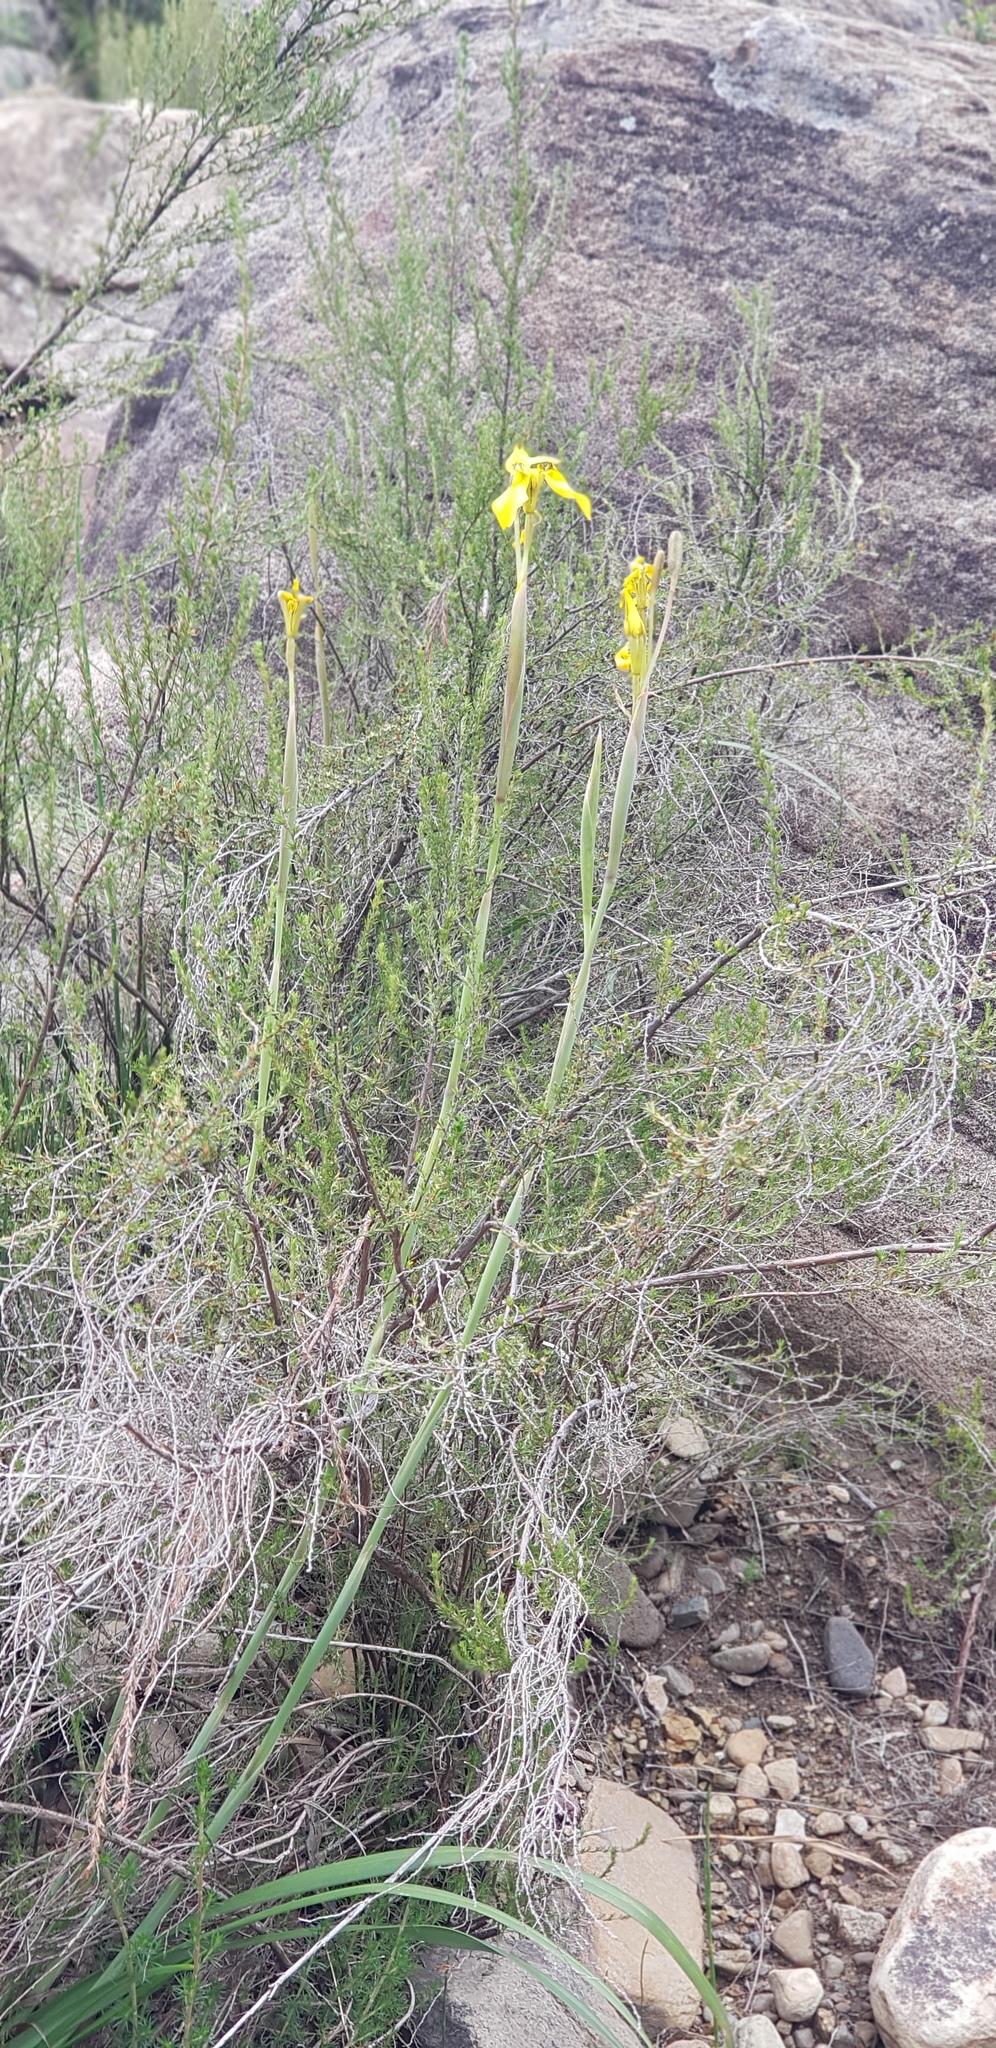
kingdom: Plantae
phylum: Tracheophyta
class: Liliopsida
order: Asparagales
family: Iridaceae
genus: Moraea
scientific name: Moraea huttonii
